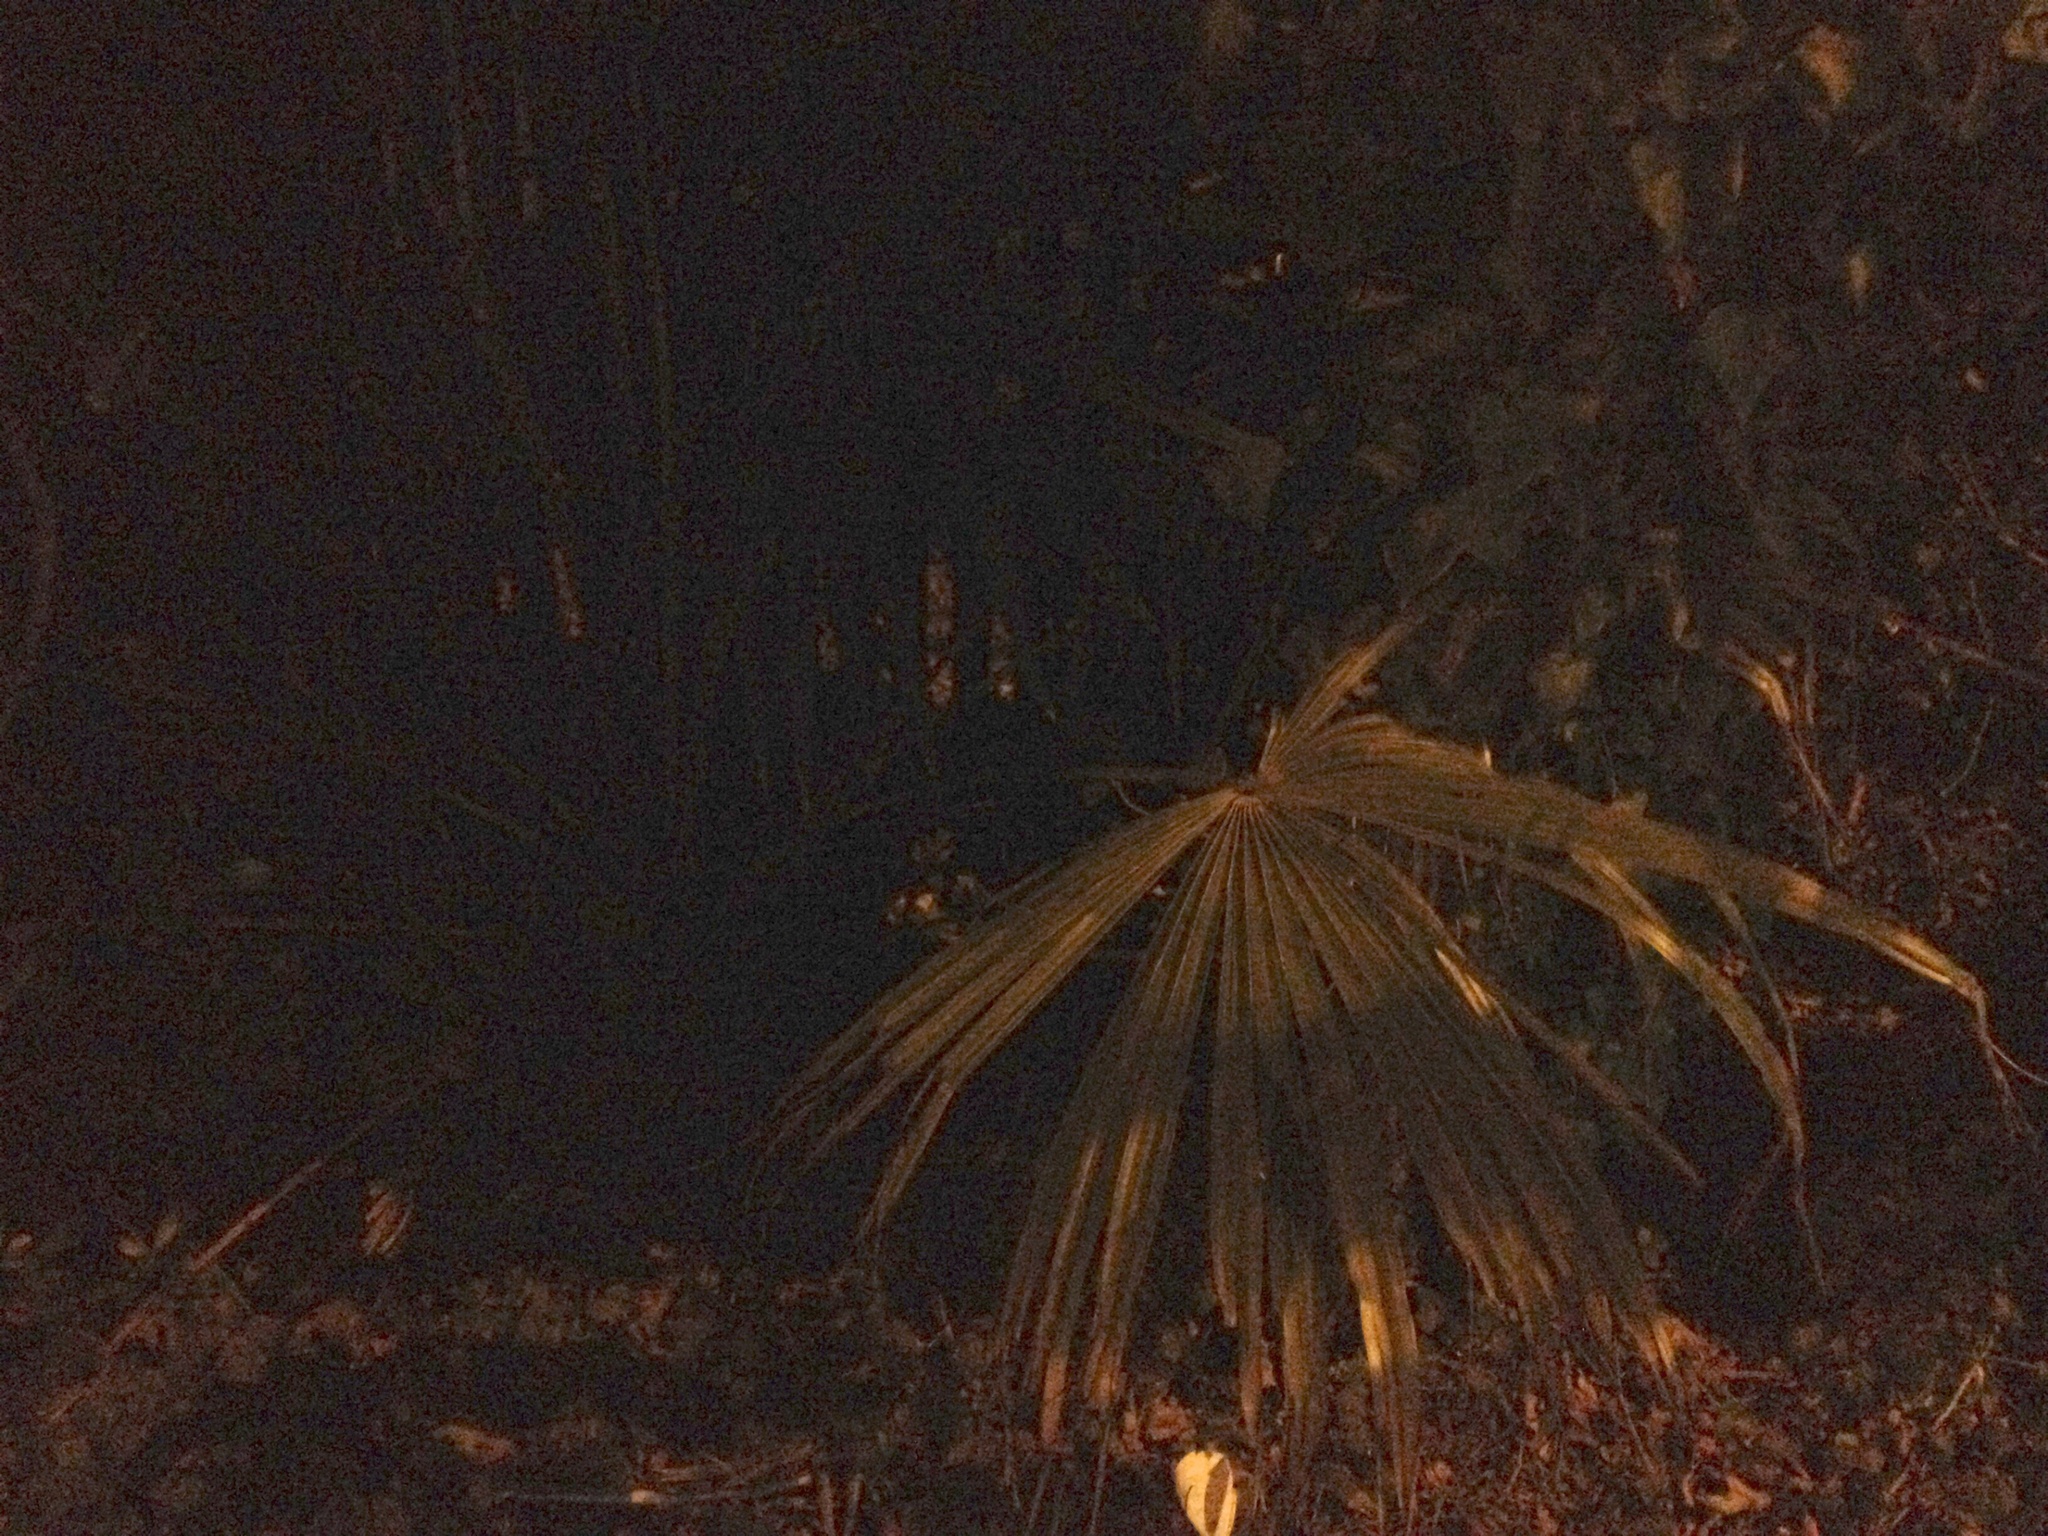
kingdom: Plantae
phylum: Tracheophyta
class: Liliopsida
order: Arecales
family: Arecaceae
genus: Trachycarpus
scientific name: Trachycarpus fortunei
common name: Chusan palm
